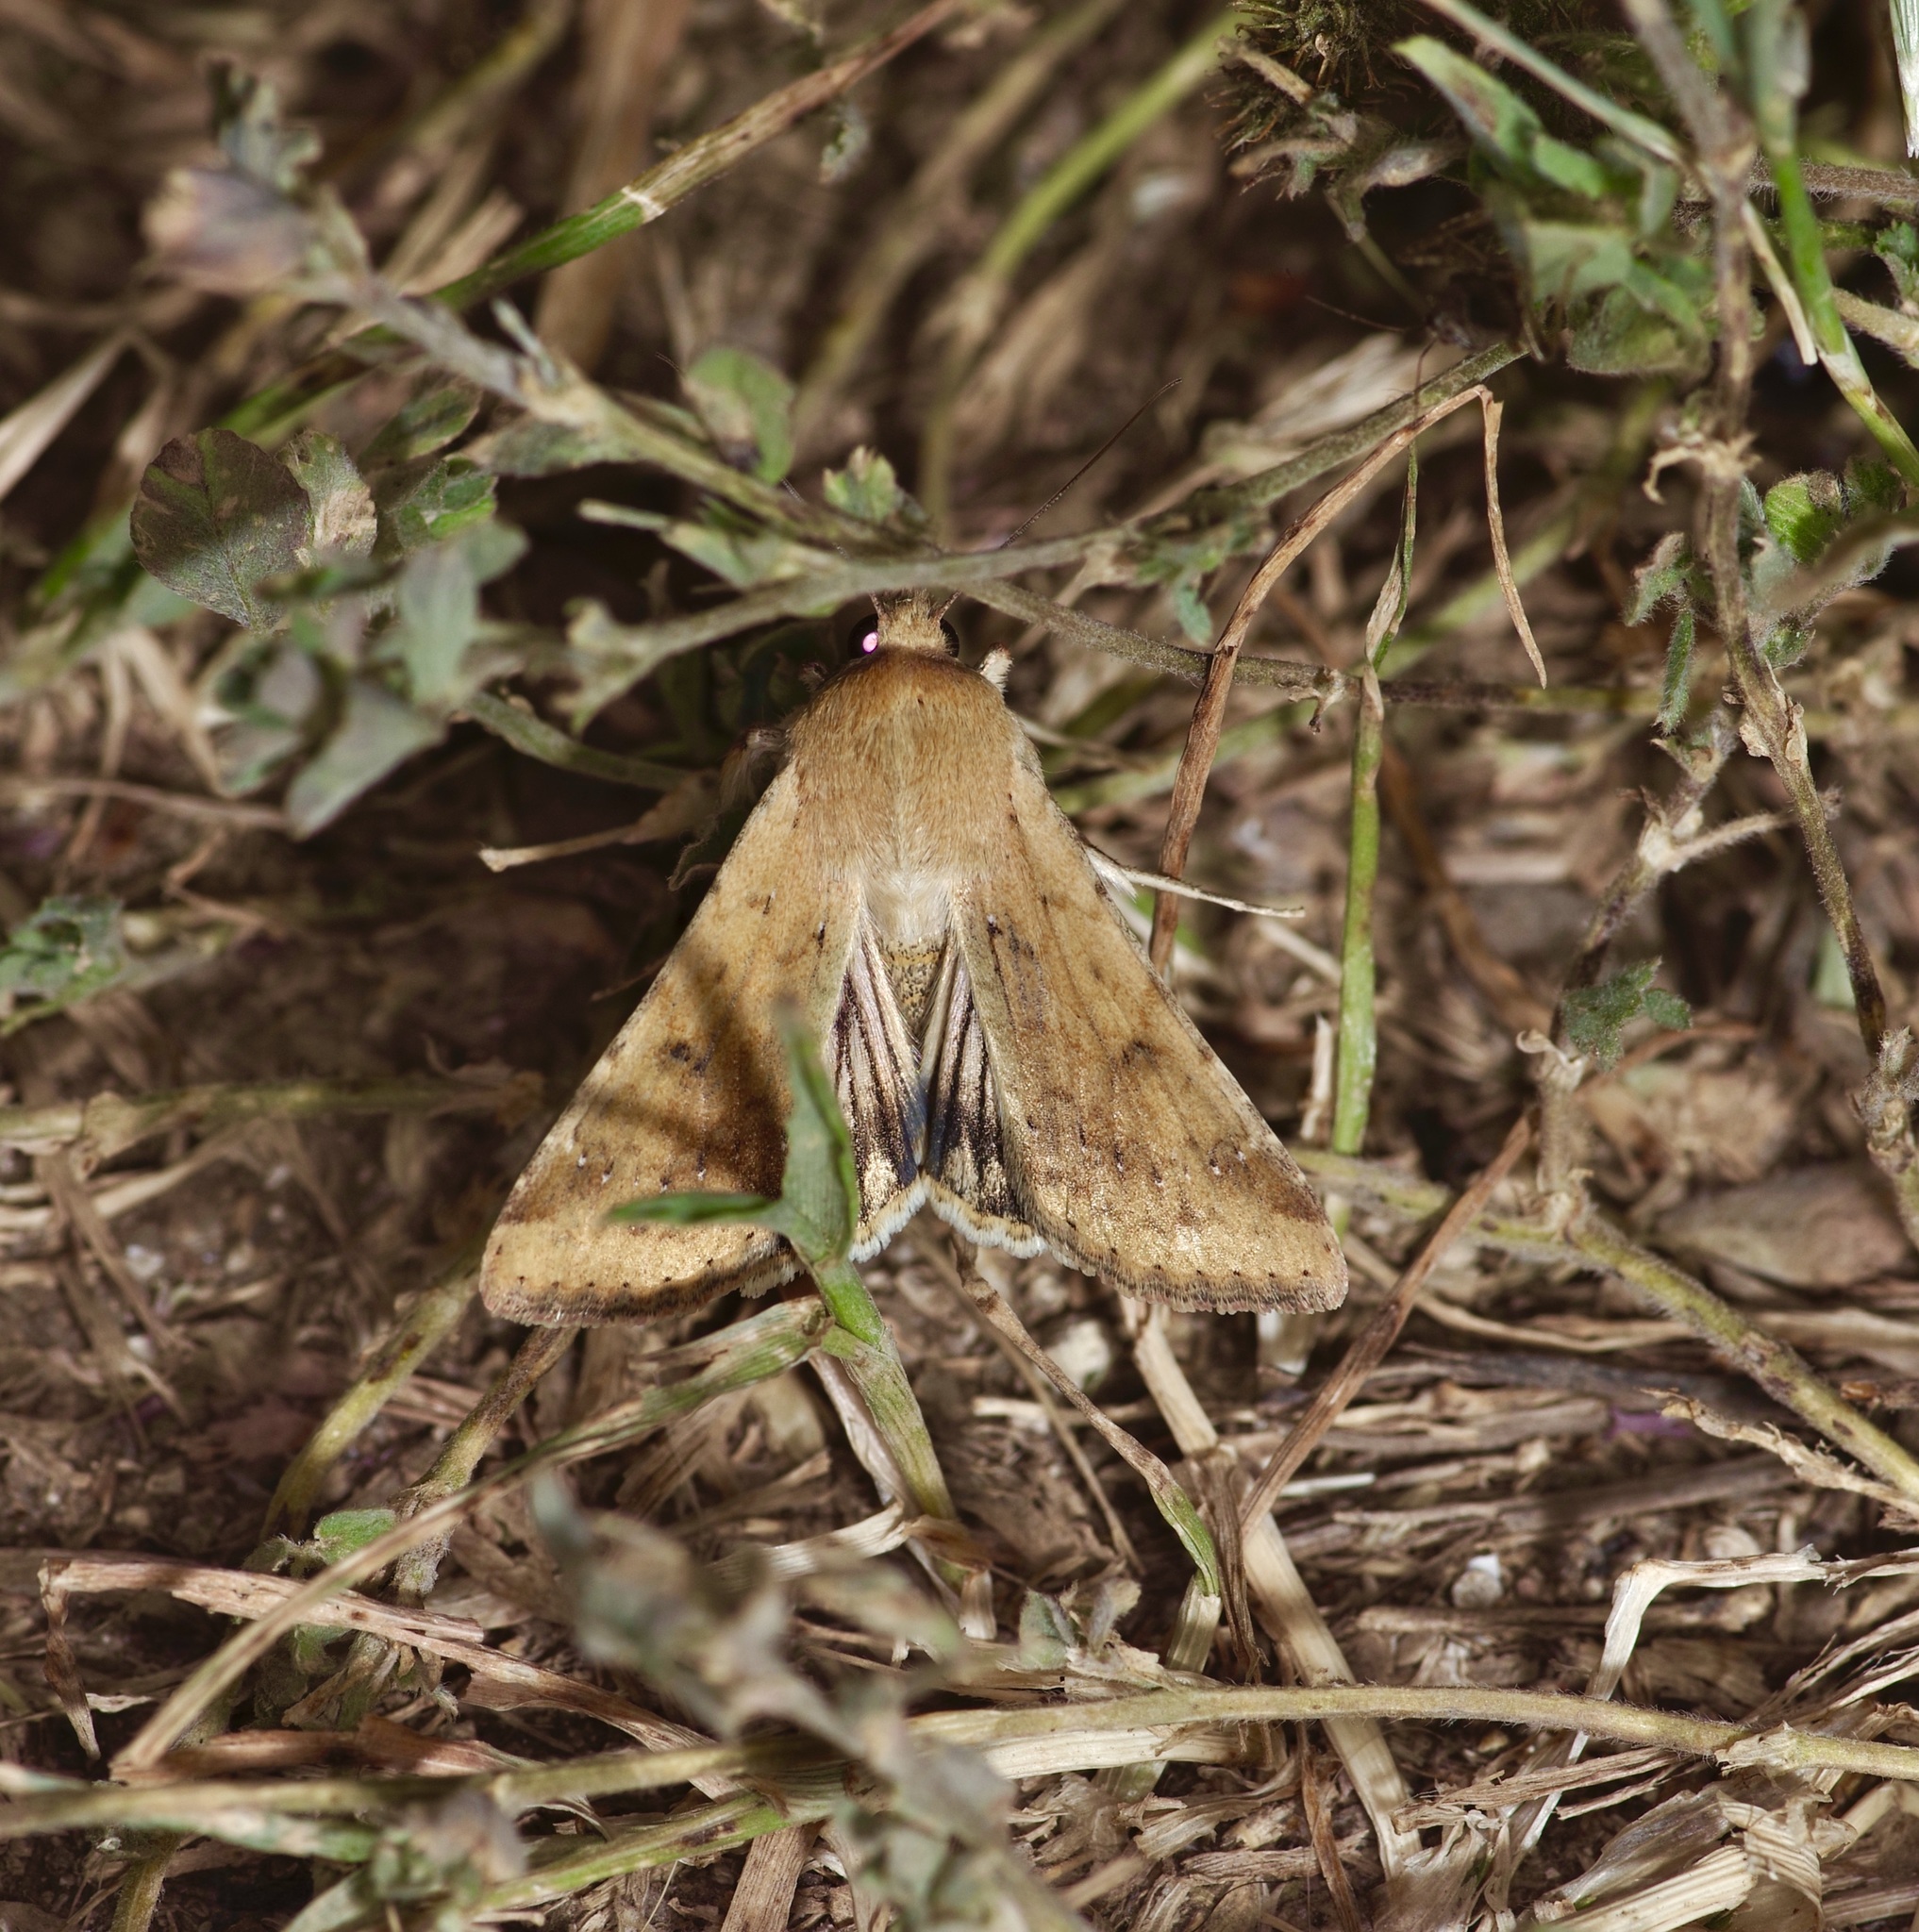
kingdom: Animalia
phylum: Arthropoda
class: Insecta
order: Lepidoptera
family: Noctuidae
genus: Helicoverpa
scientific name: Helicoverpa zea
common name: Bollworm
